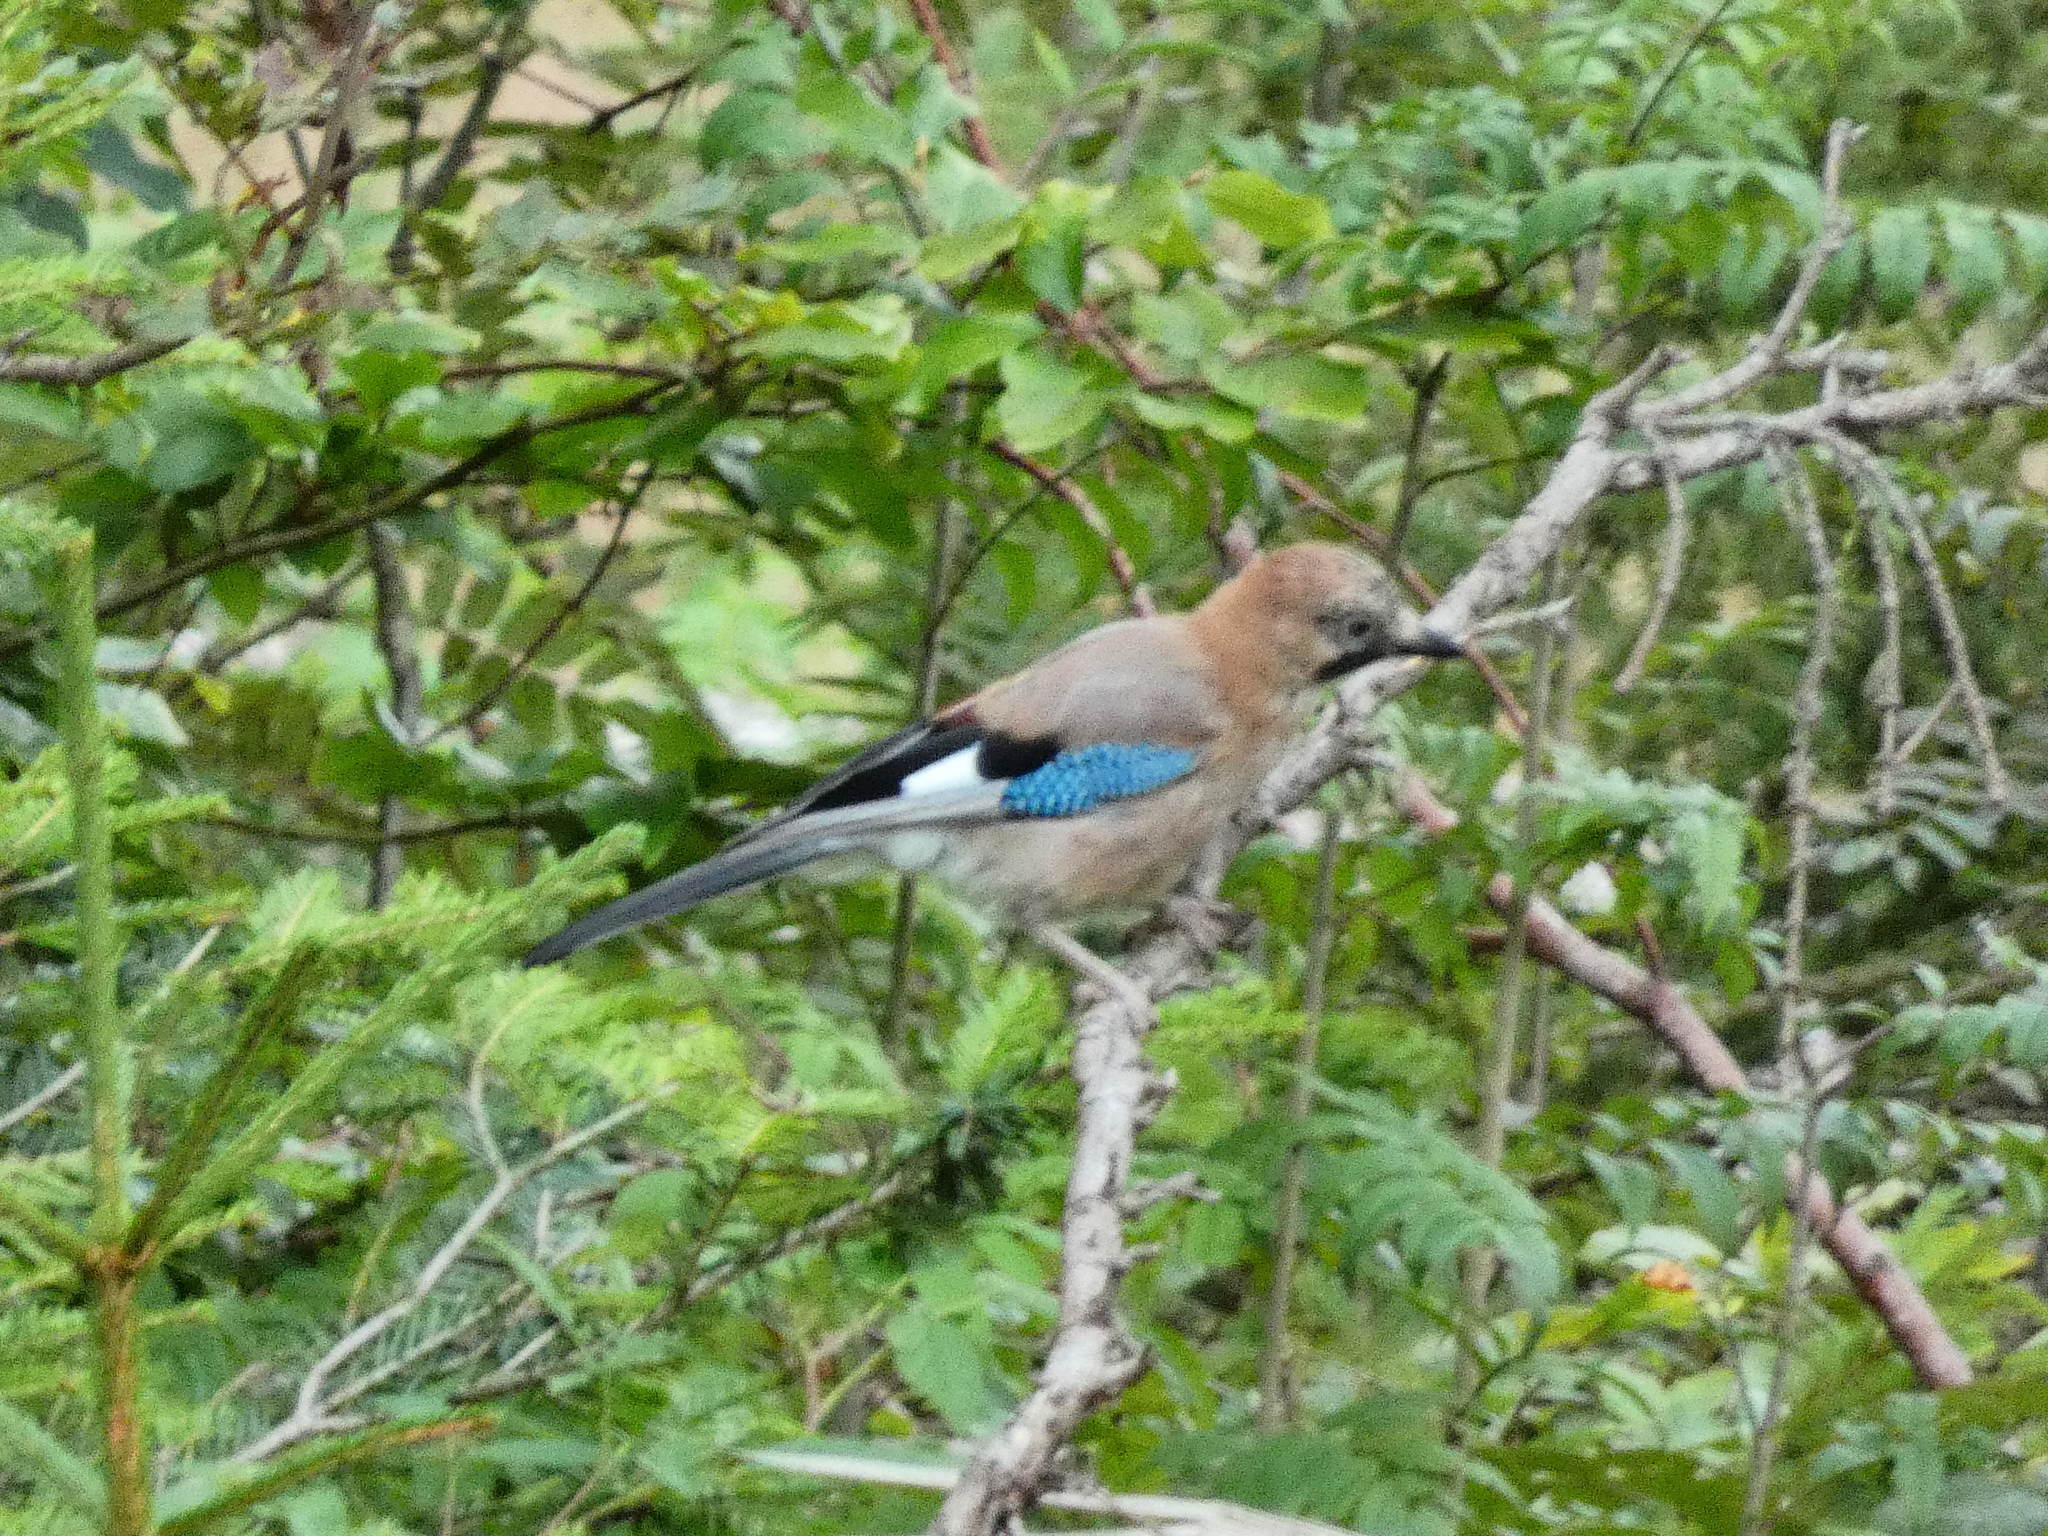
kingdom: Animalia
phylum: Chordata
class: Aves
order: Passeriformes
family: Corvidae
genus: Garrulus
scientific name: Garrulus glandarius
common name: Eurasian jay
